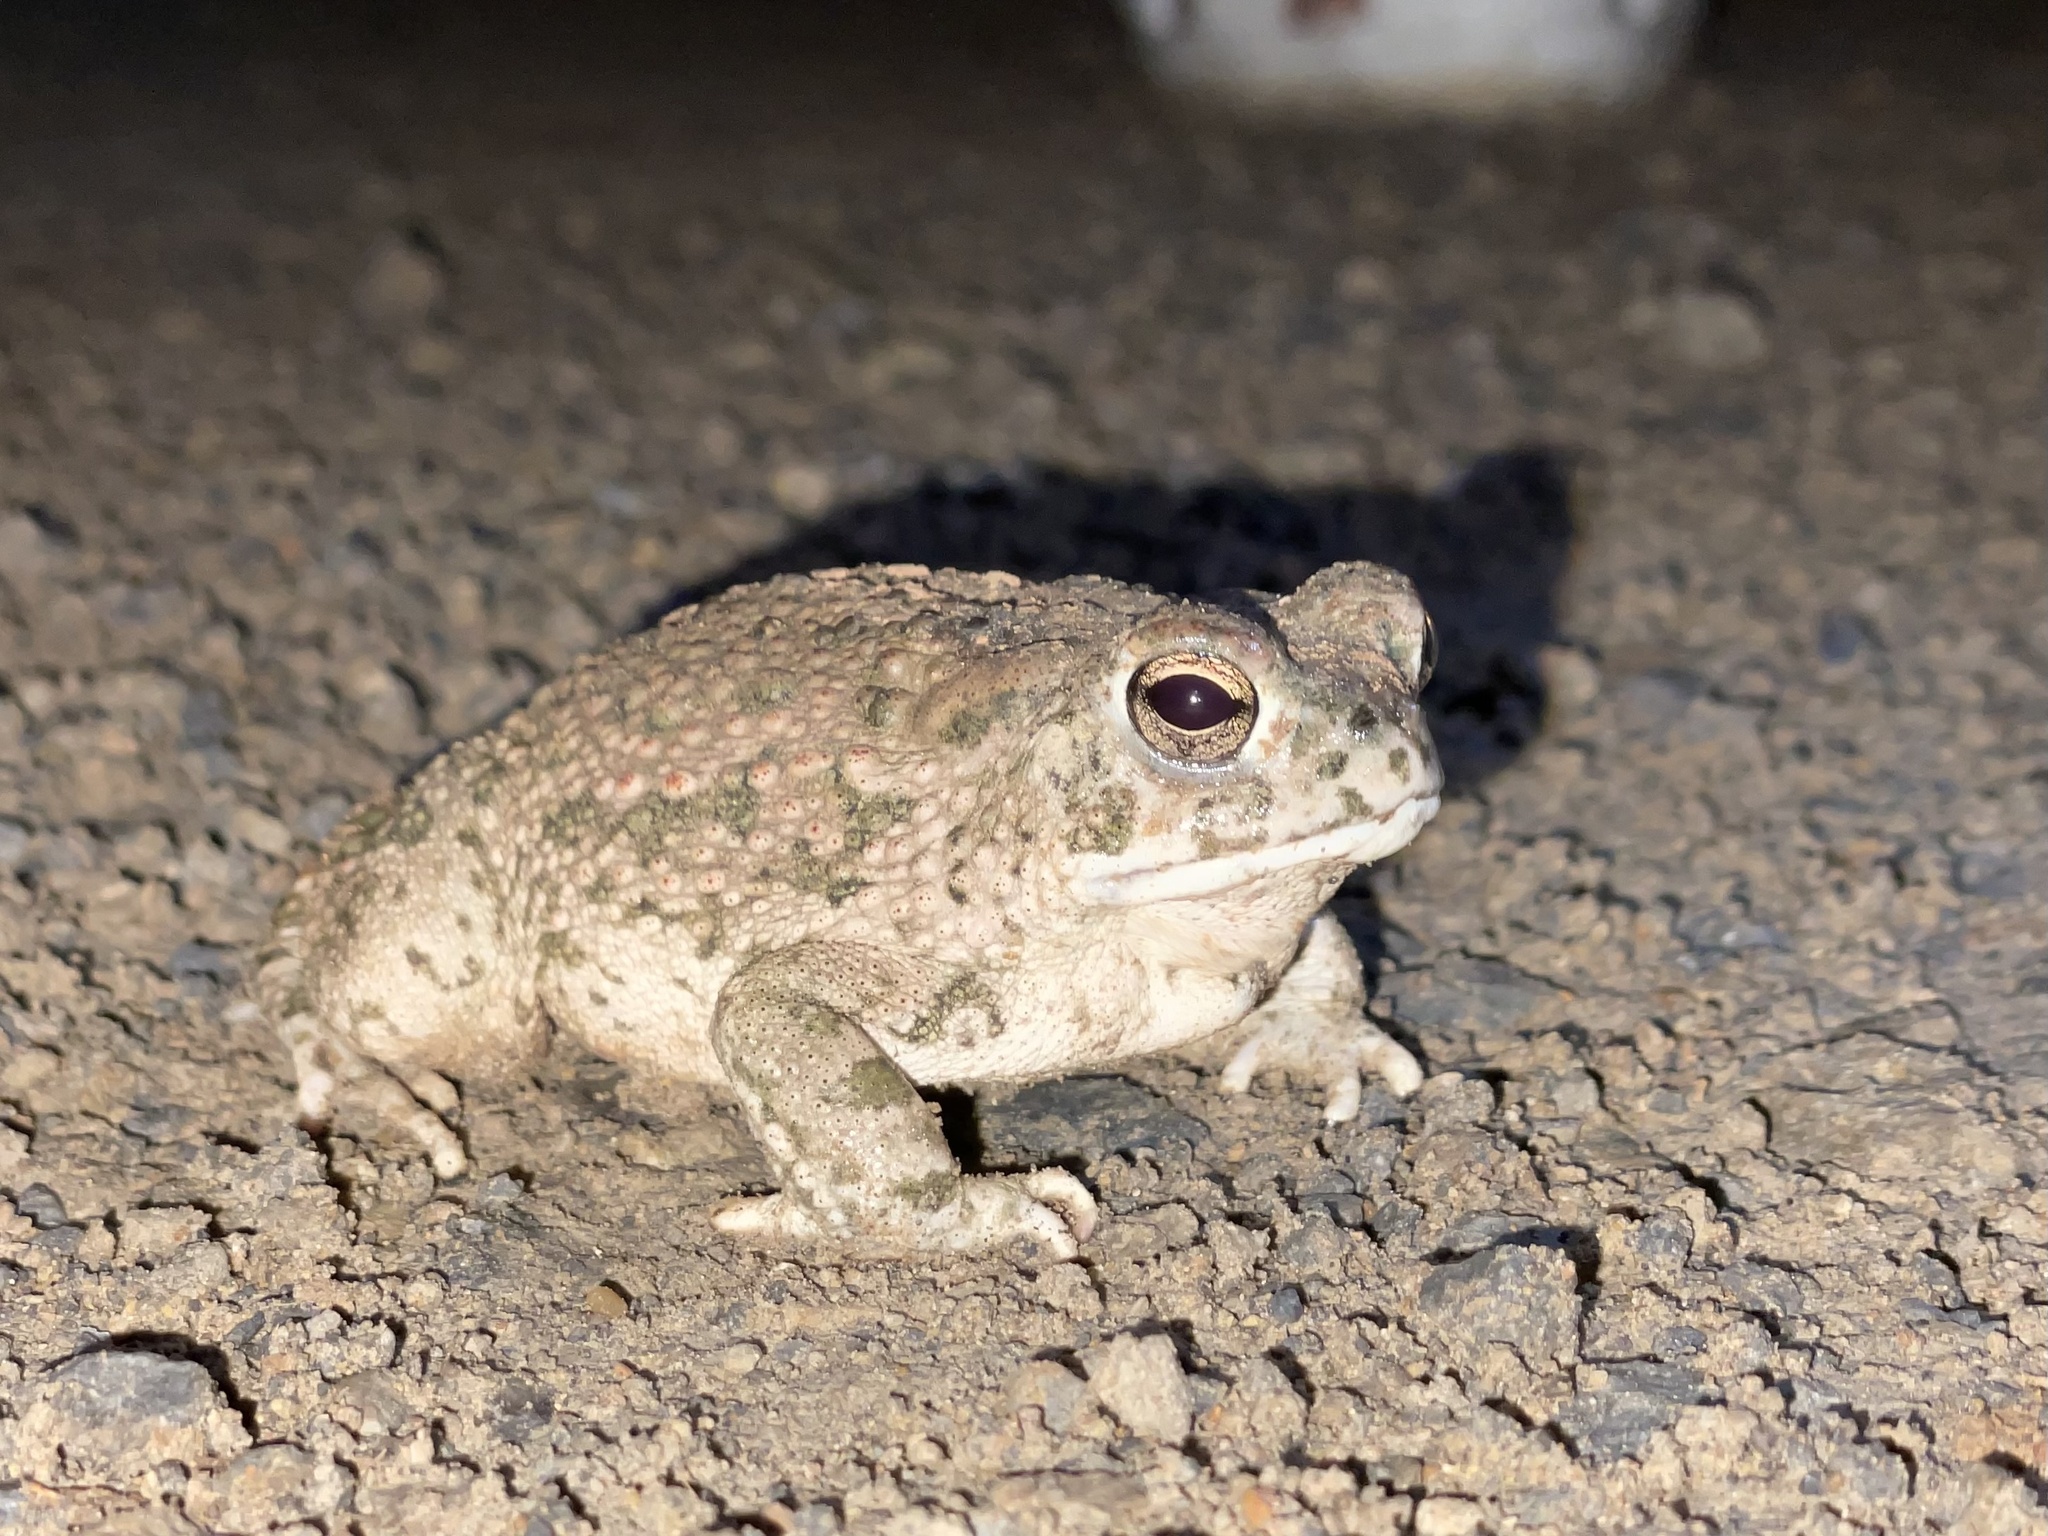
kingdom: Animalia
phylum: Chordata
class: Amphibia
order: Anura
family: Bufonidae
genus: Anaxyrus
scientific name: Anaxyrus speciosus
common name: Texas toad
